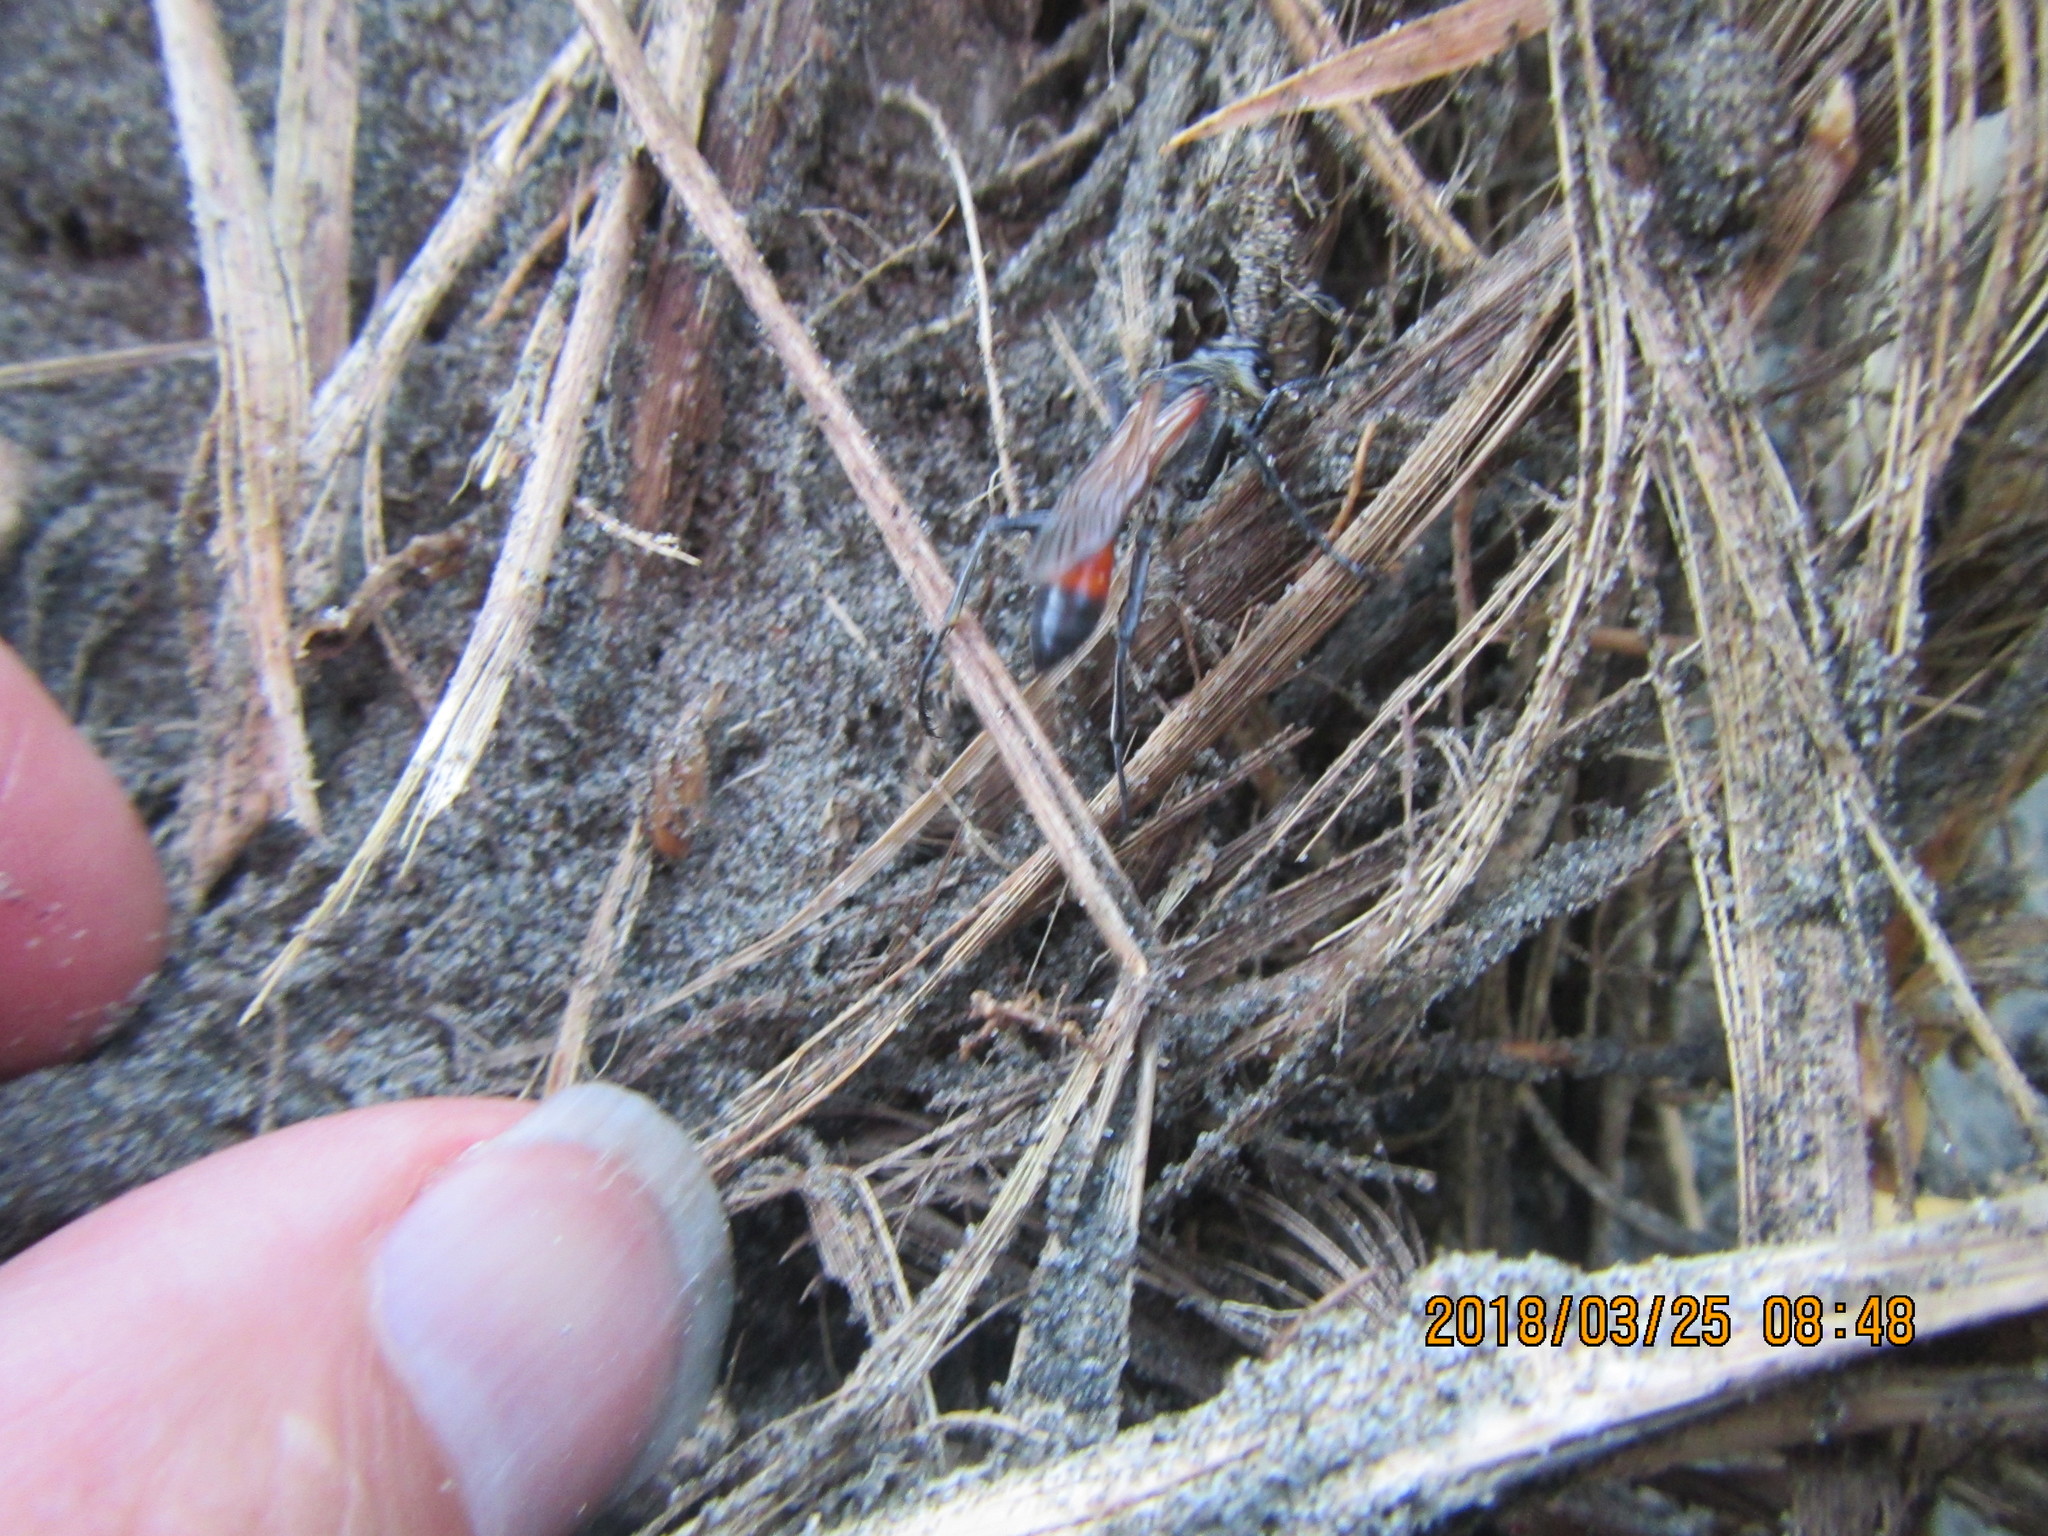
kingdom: Animalia
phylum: Arthropoda
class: Insecta
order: Hymenoptera
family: Sphecidae
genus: Podalonia
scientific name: Podalonia tydei
